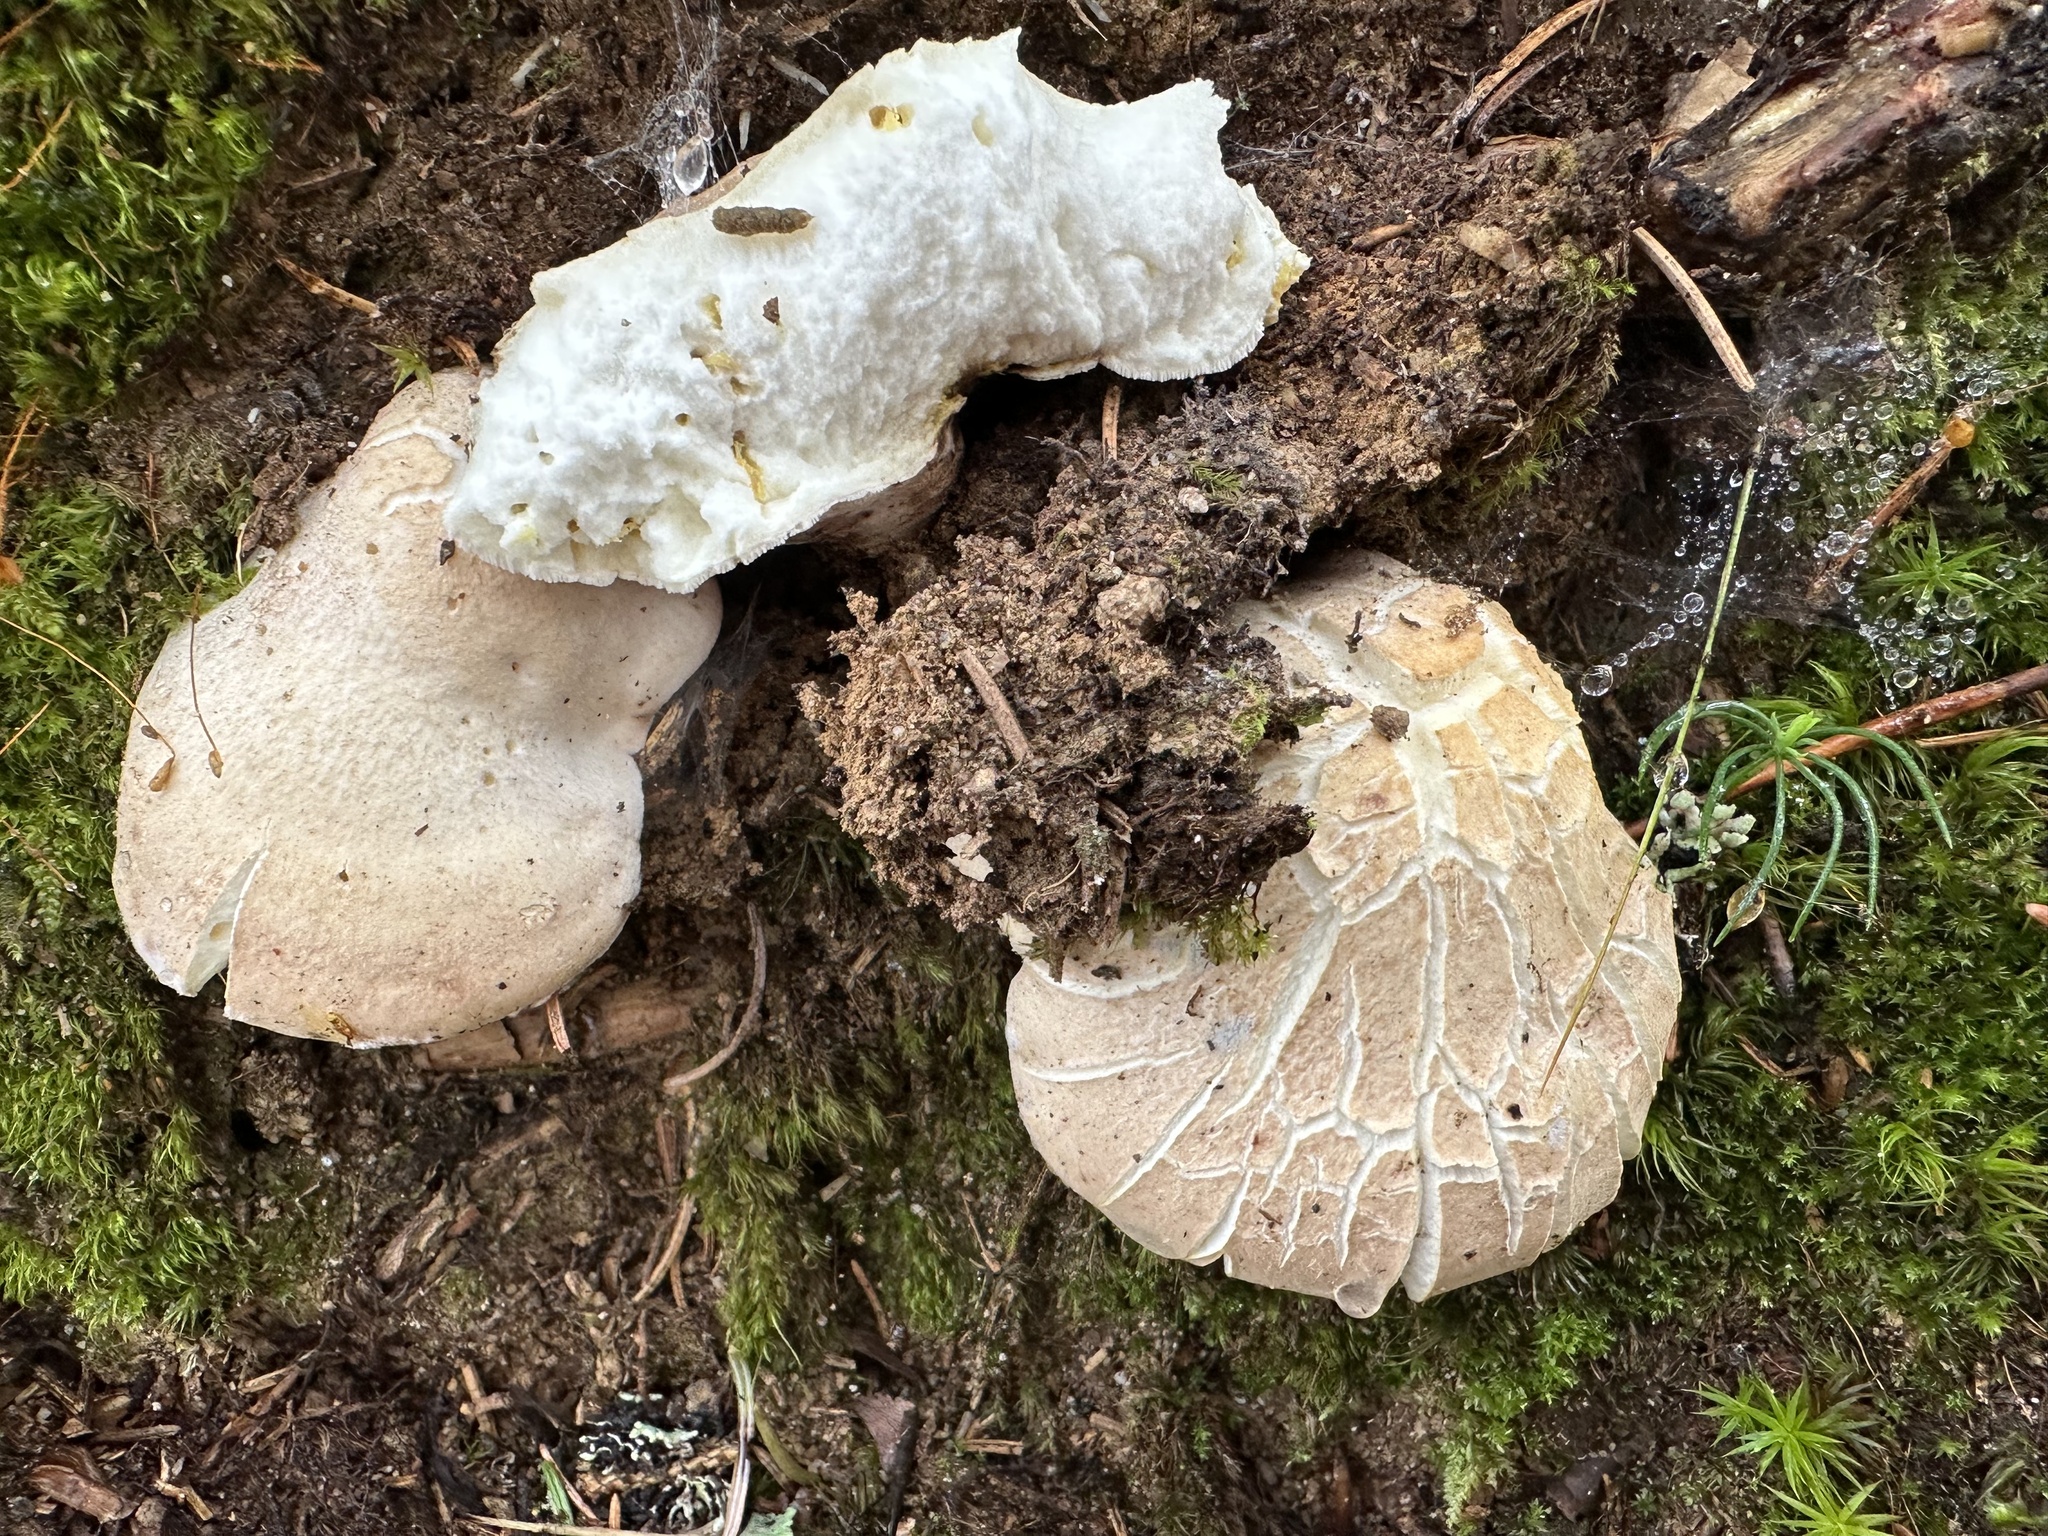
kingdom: Fungi
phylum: Basidiomycota
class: Agaricomycetes
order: Russulales
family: Albatrellaceae
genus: Albatrellus
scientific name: Albatrellus ovinus
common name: Forest lamb
